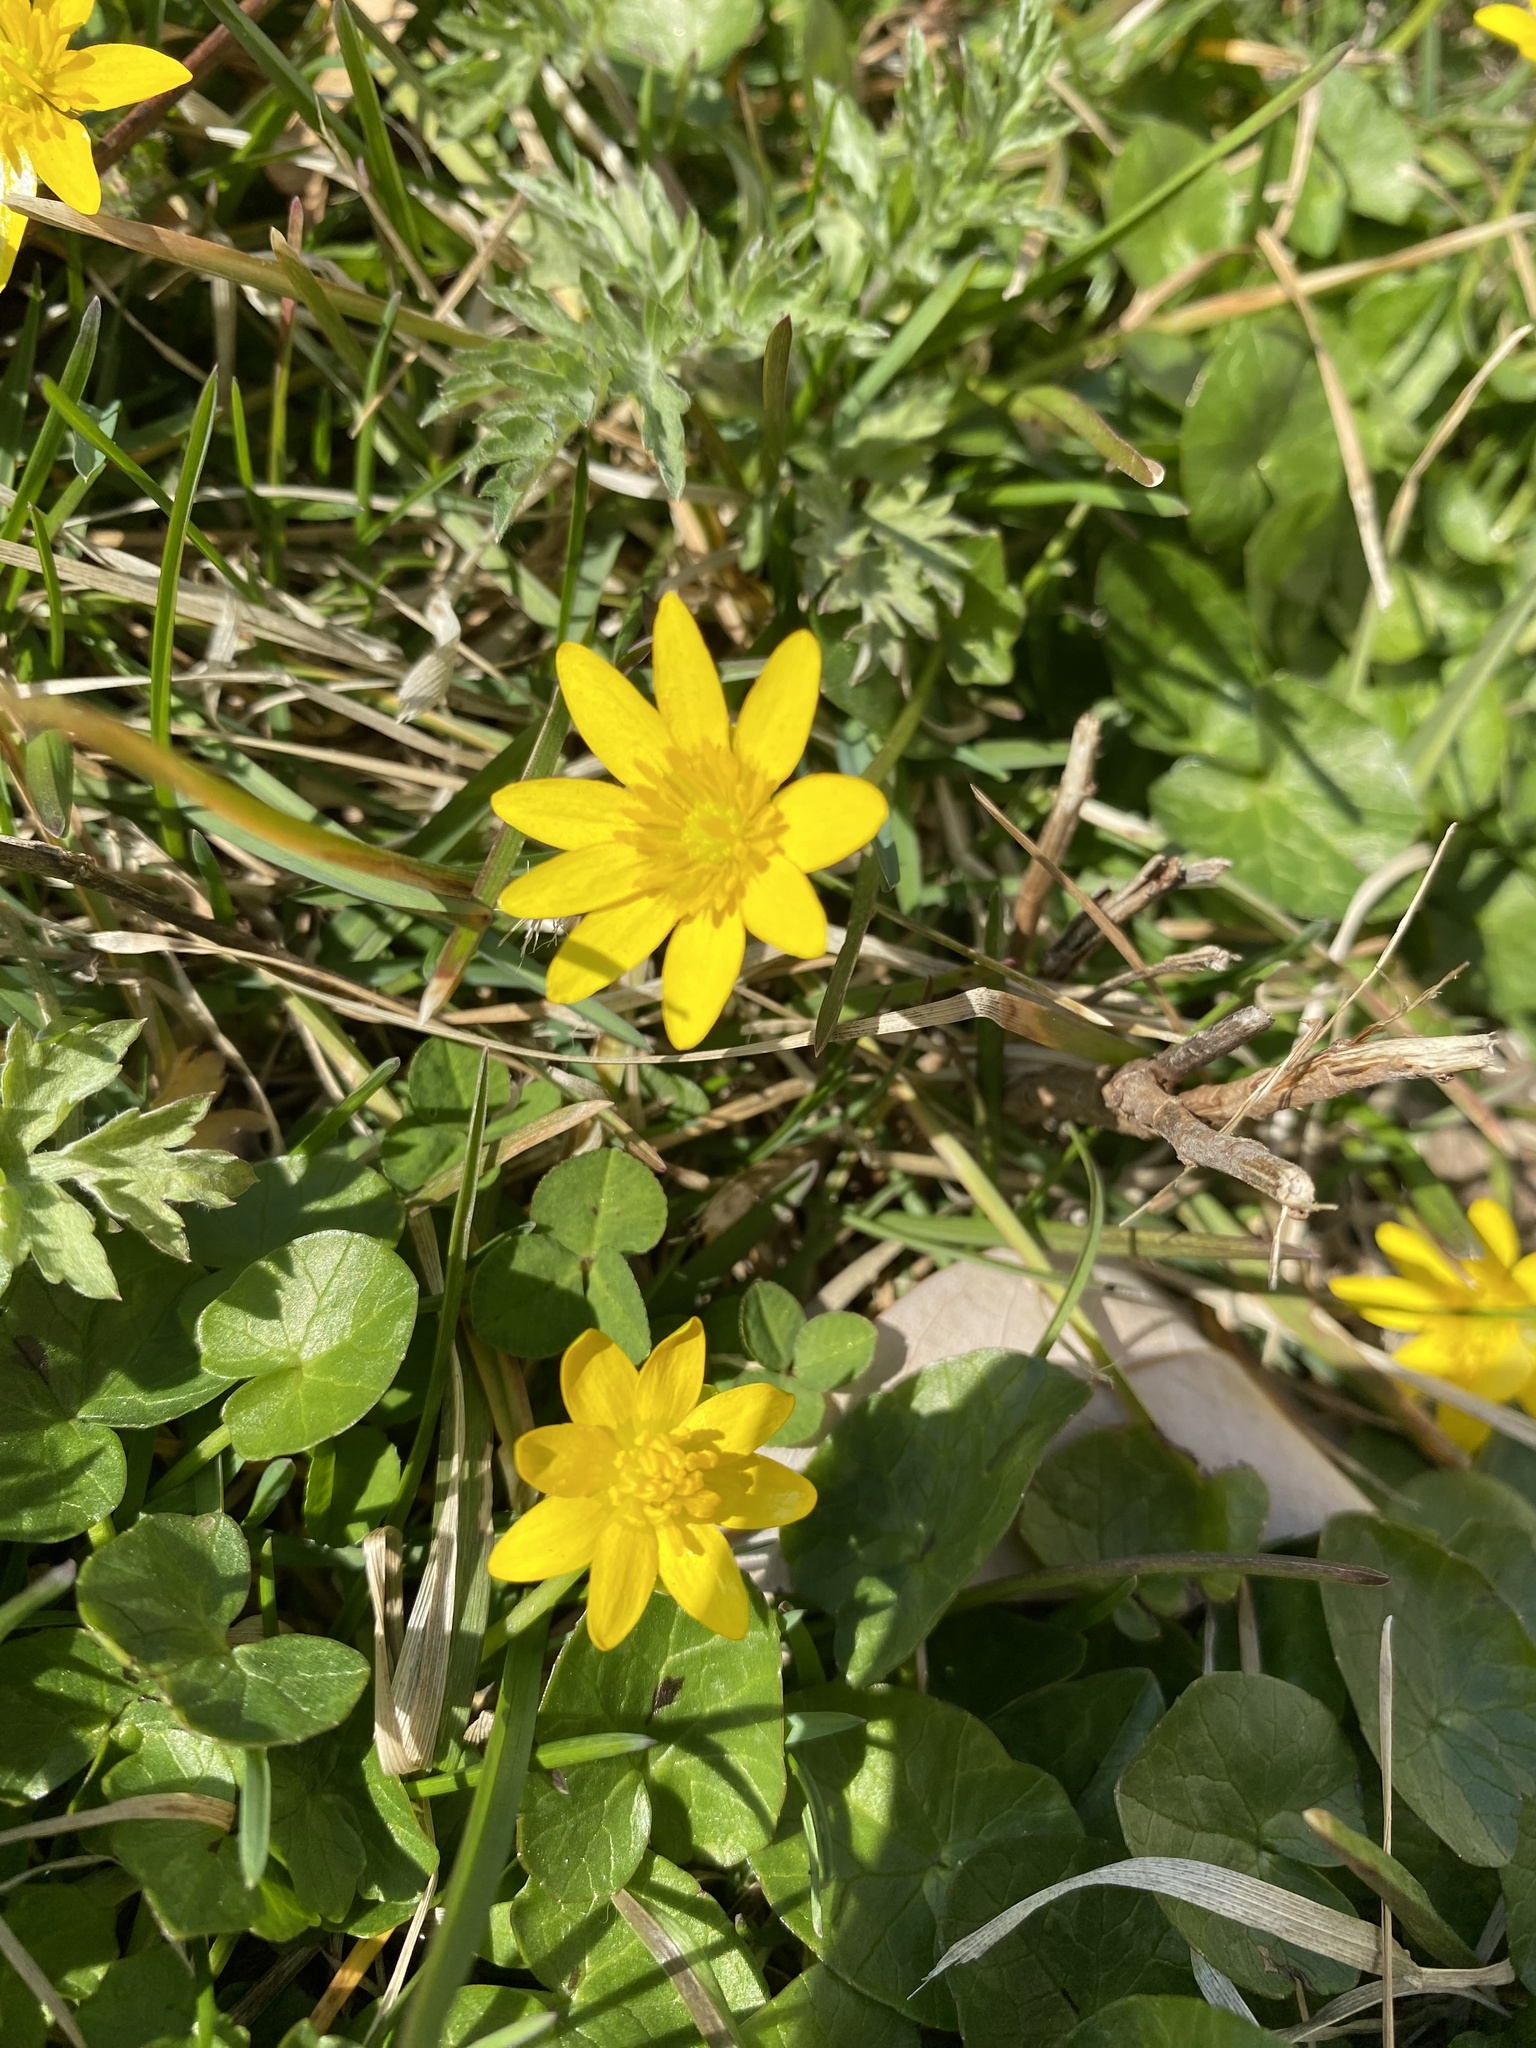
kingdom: Plantae
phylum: Tracheophyta
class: Magnoliopsida
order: Ranunculales
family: Ranunculaceae
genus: Ficaria
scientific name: Ficaria verna
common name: Lesser celandine
